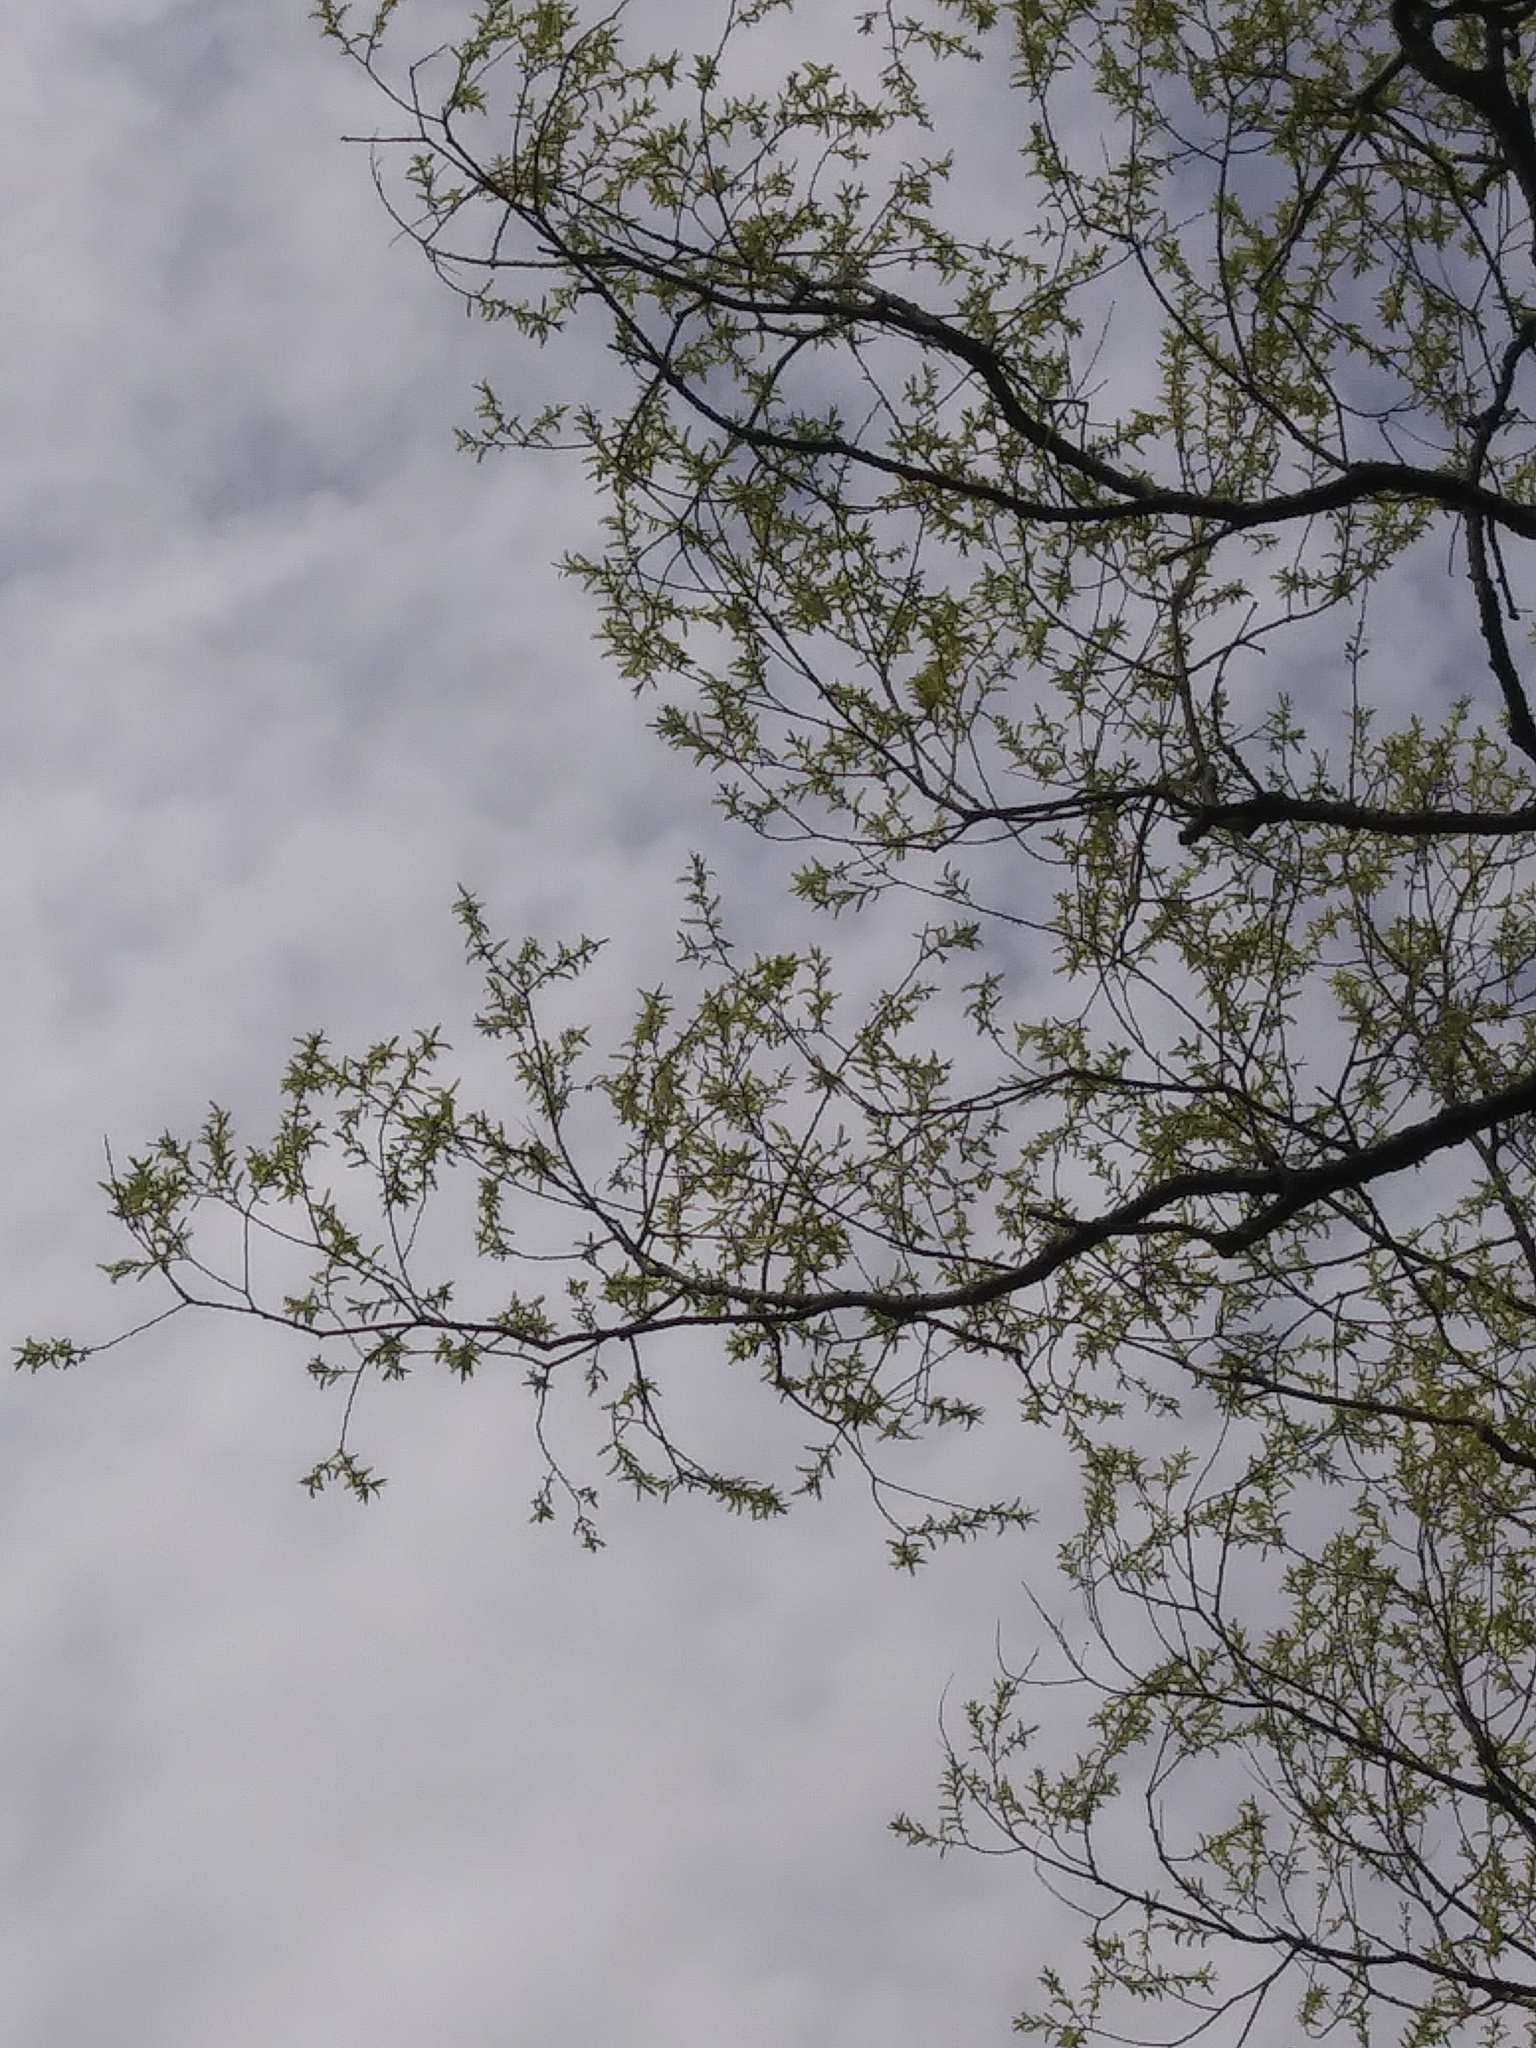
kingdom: Plantae
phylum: Tracheophyta
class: Magnoliopsida
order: Malpighiales
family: Salicaceae
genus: Salix
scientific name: Salix nigra
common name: Black willow
